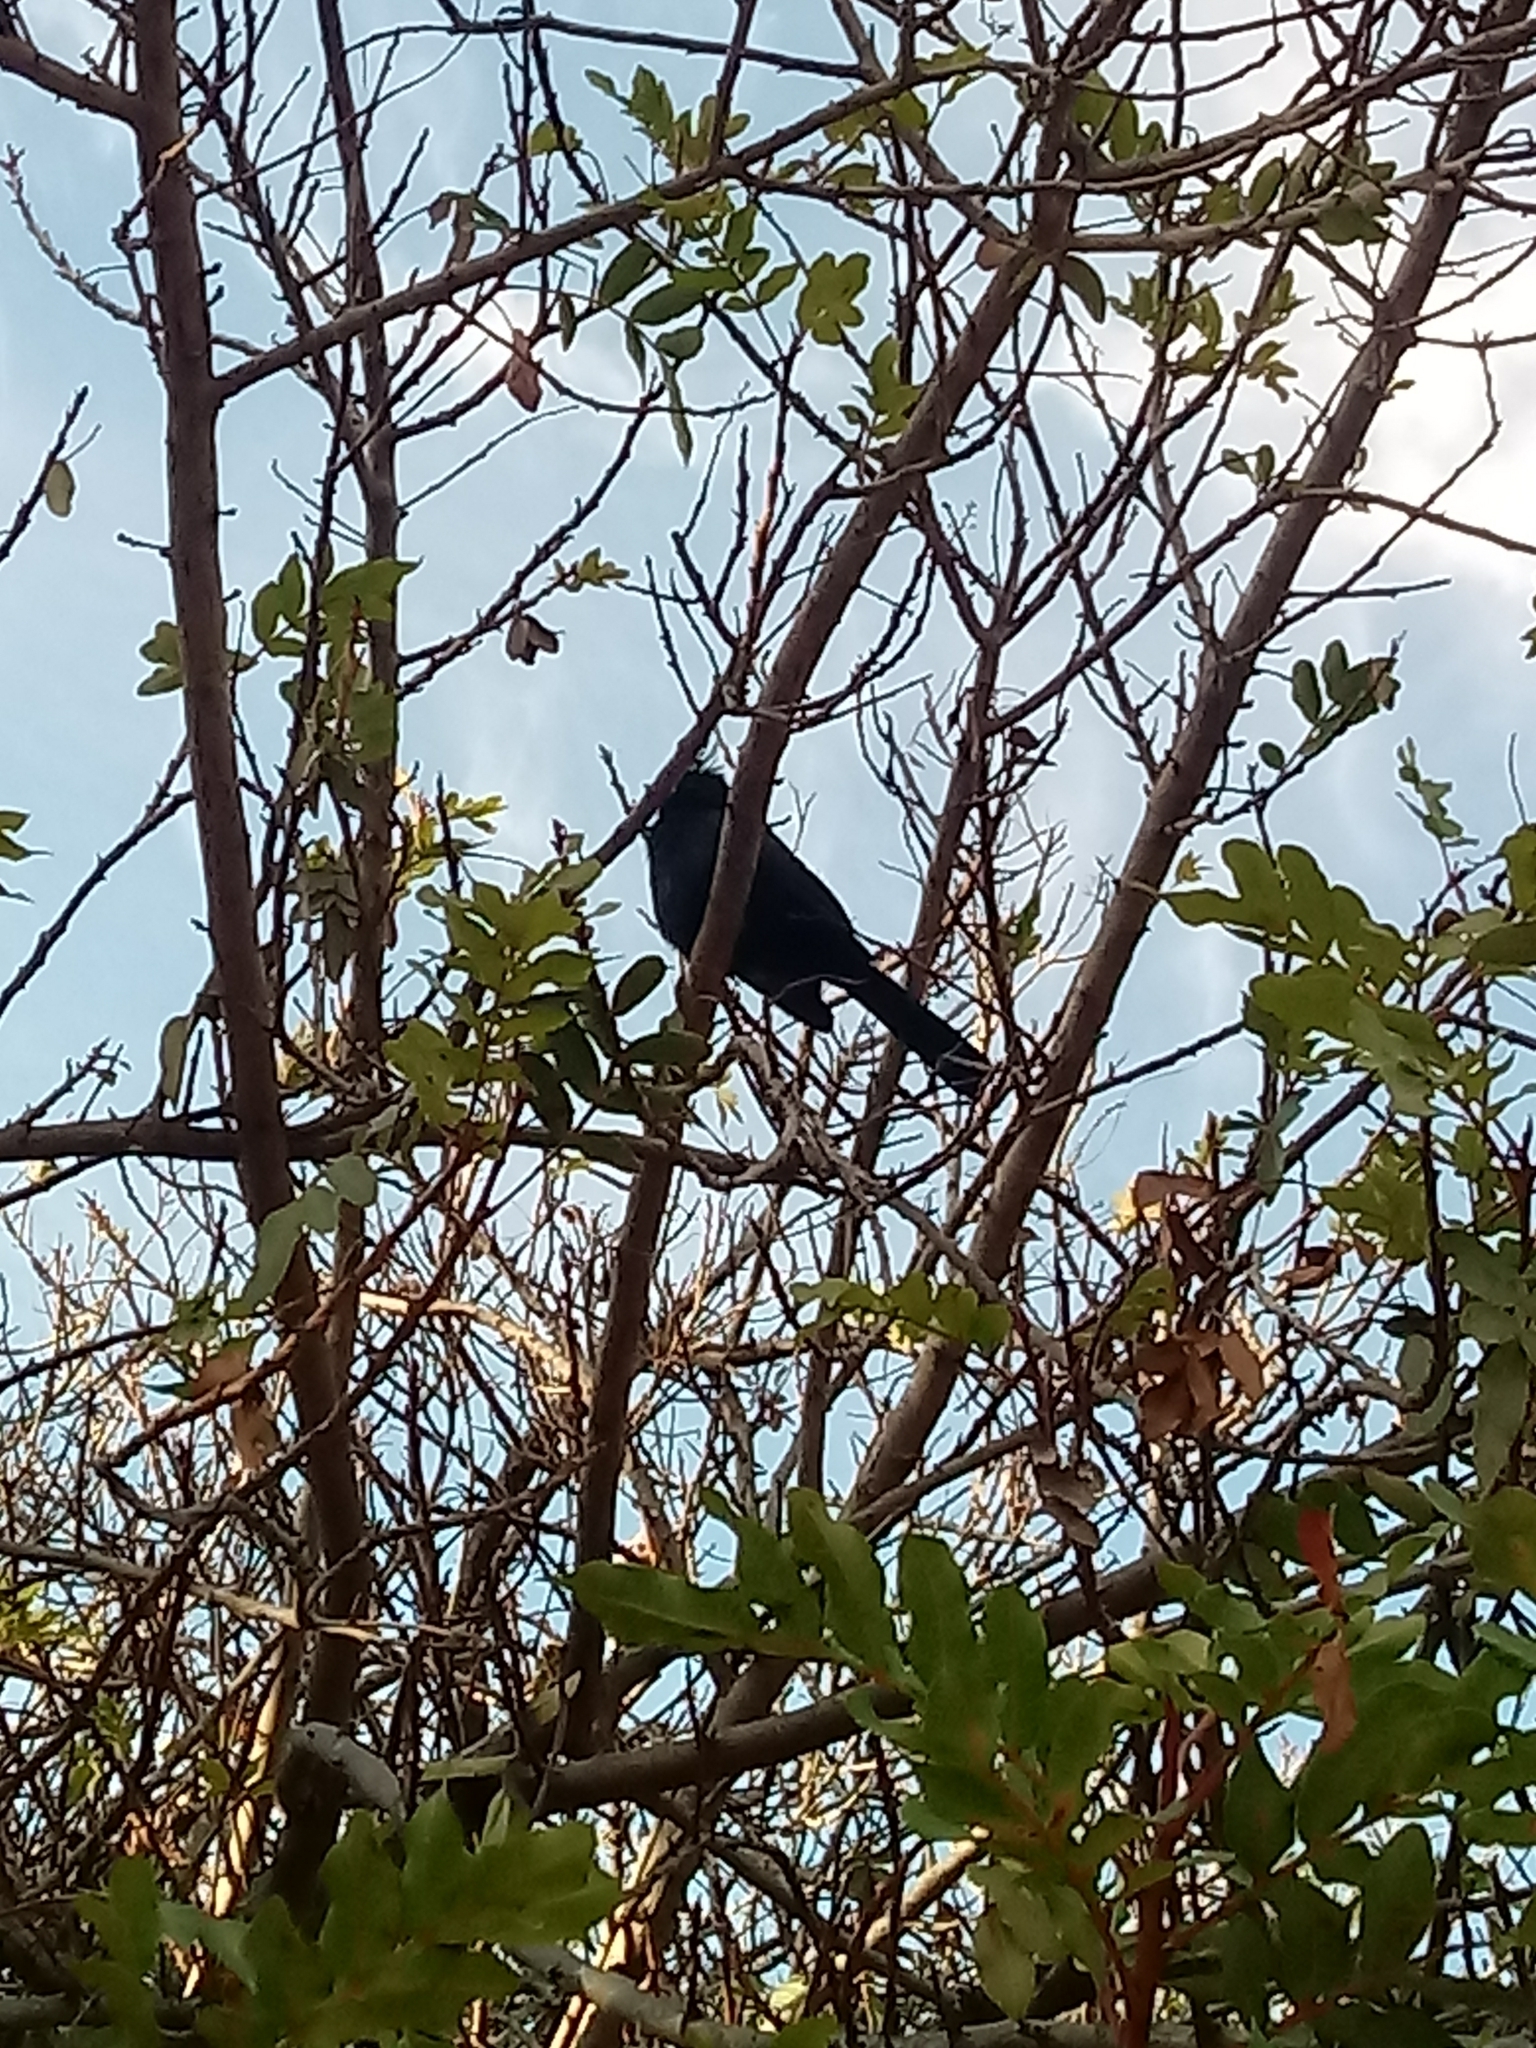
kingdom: Animalia
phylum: Chordata
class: Aves
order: Passeriformes
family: Ptilogonatidae
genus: Phainopepla
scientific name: Phainopepla nitens
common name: Phainopepla
